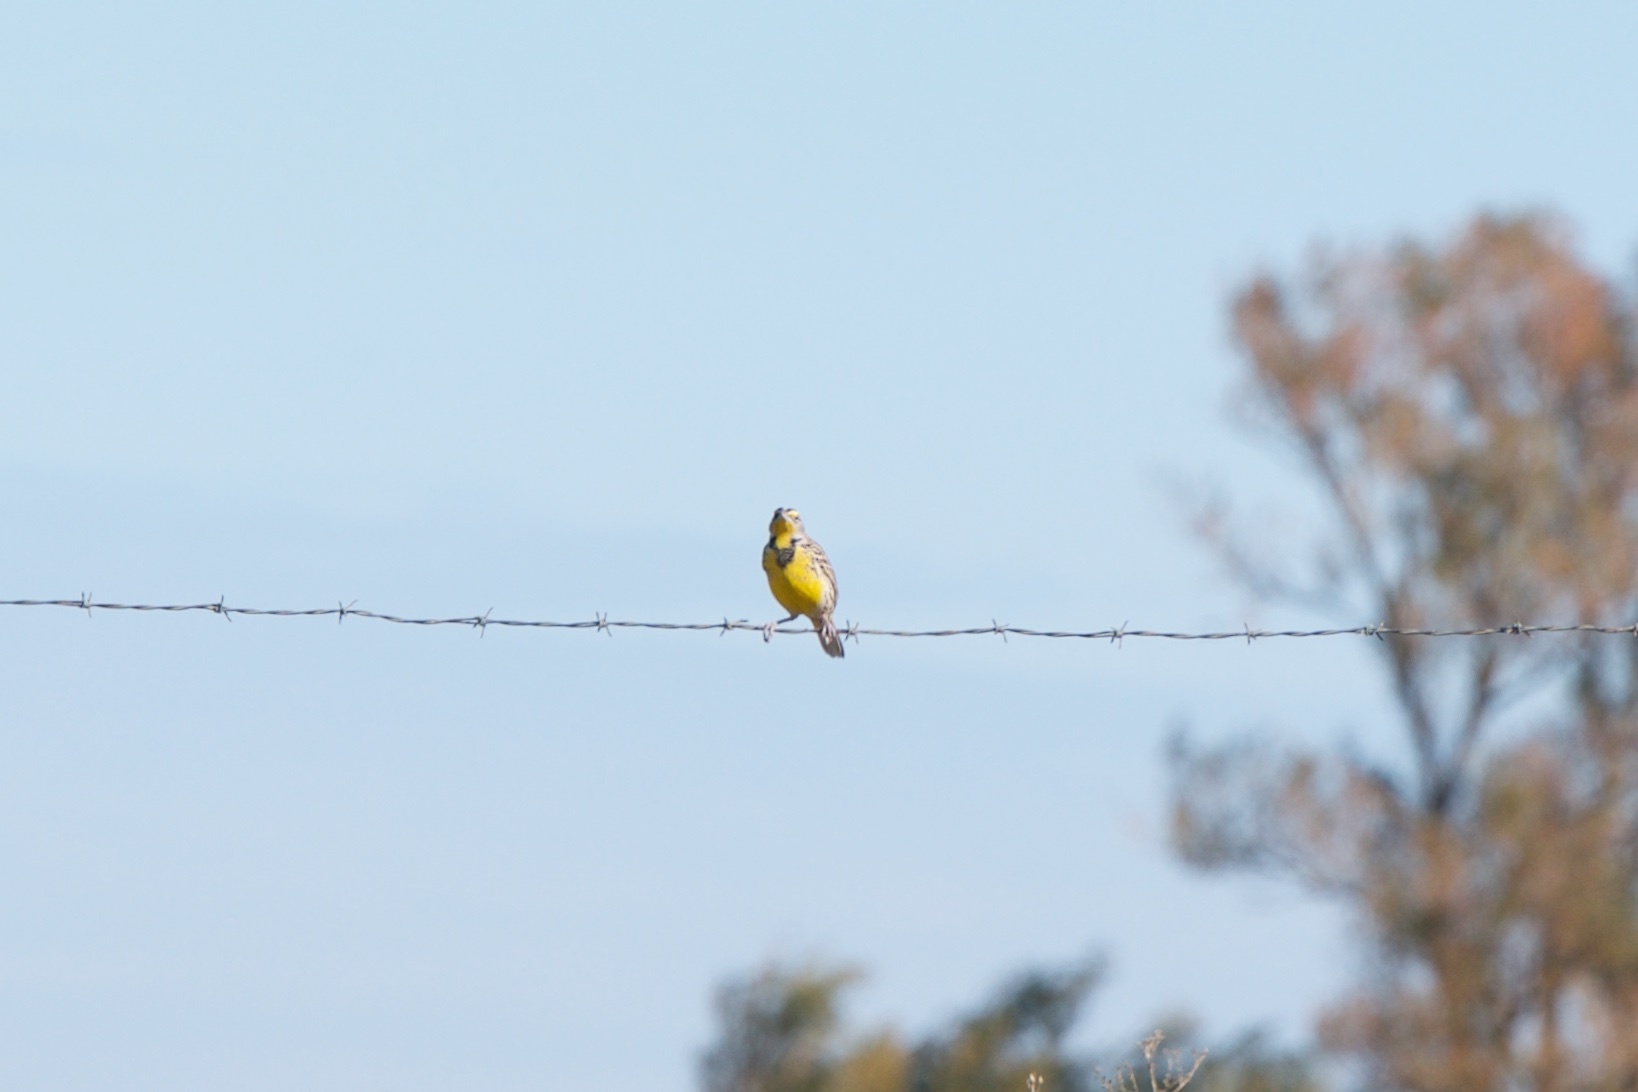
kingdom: Animalia
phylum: Chordata
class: Aves
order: Passeriformes
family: Icteridae
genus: Sturnella
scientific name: Sturnella neglecta
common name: Western meadowlark
